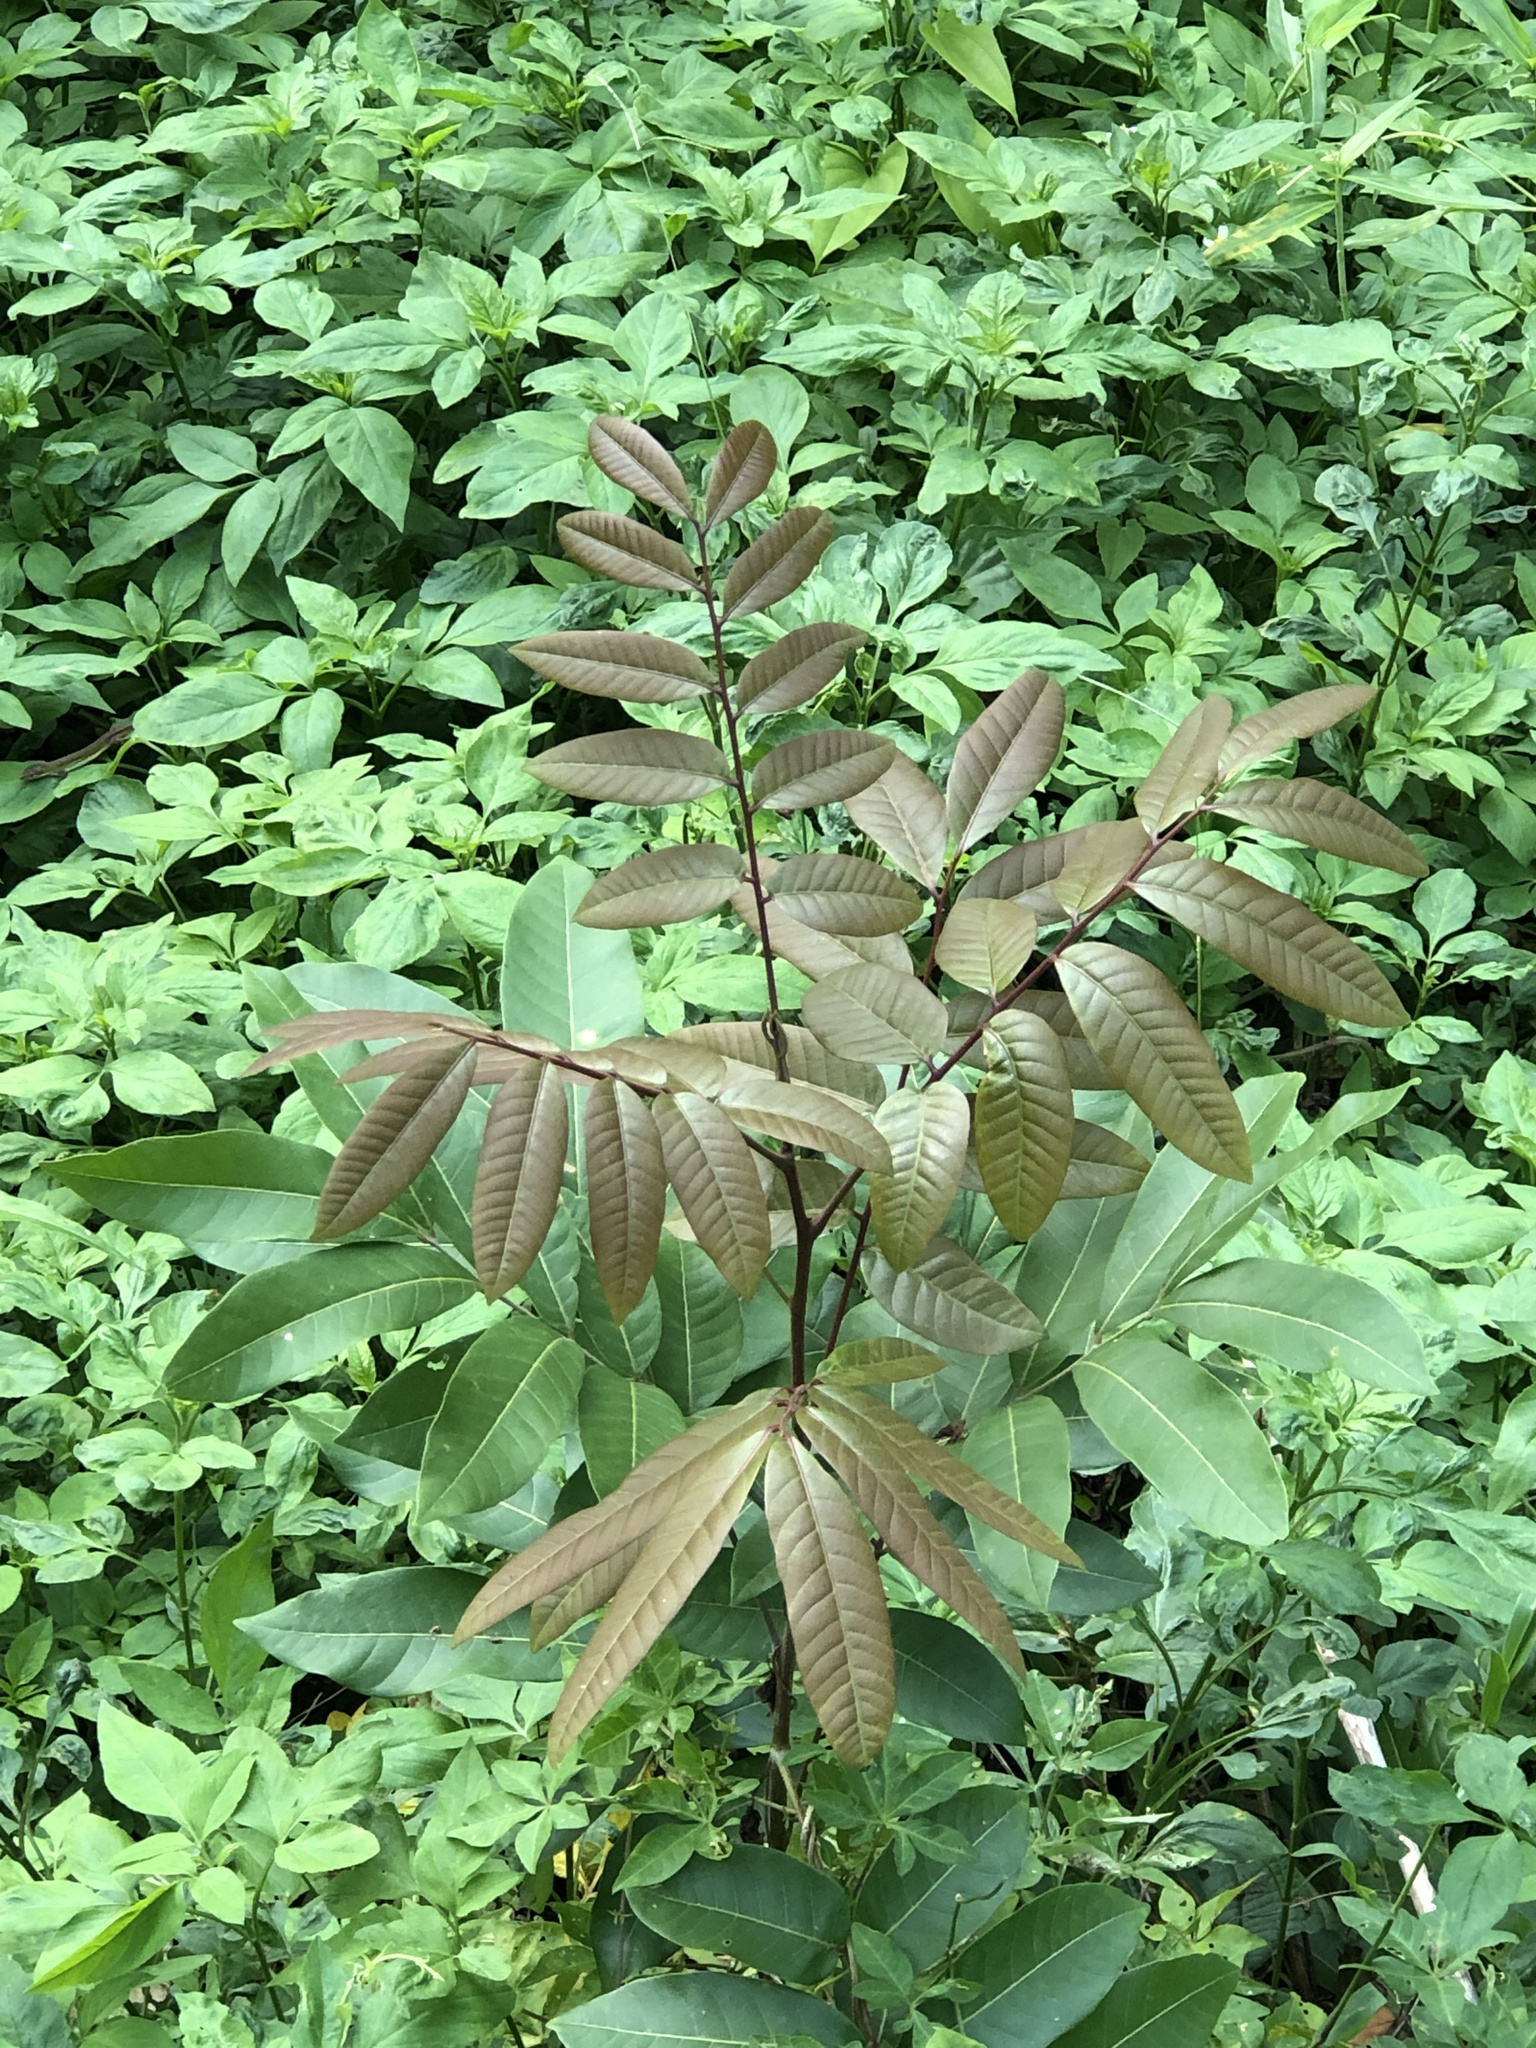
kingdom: Plantae
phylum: Tracheophyta
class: Magnoliopsida
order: Sapindales
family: Sapindaceae
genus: Dimocarpus
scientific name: Dimocarpus longan
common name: Longan
